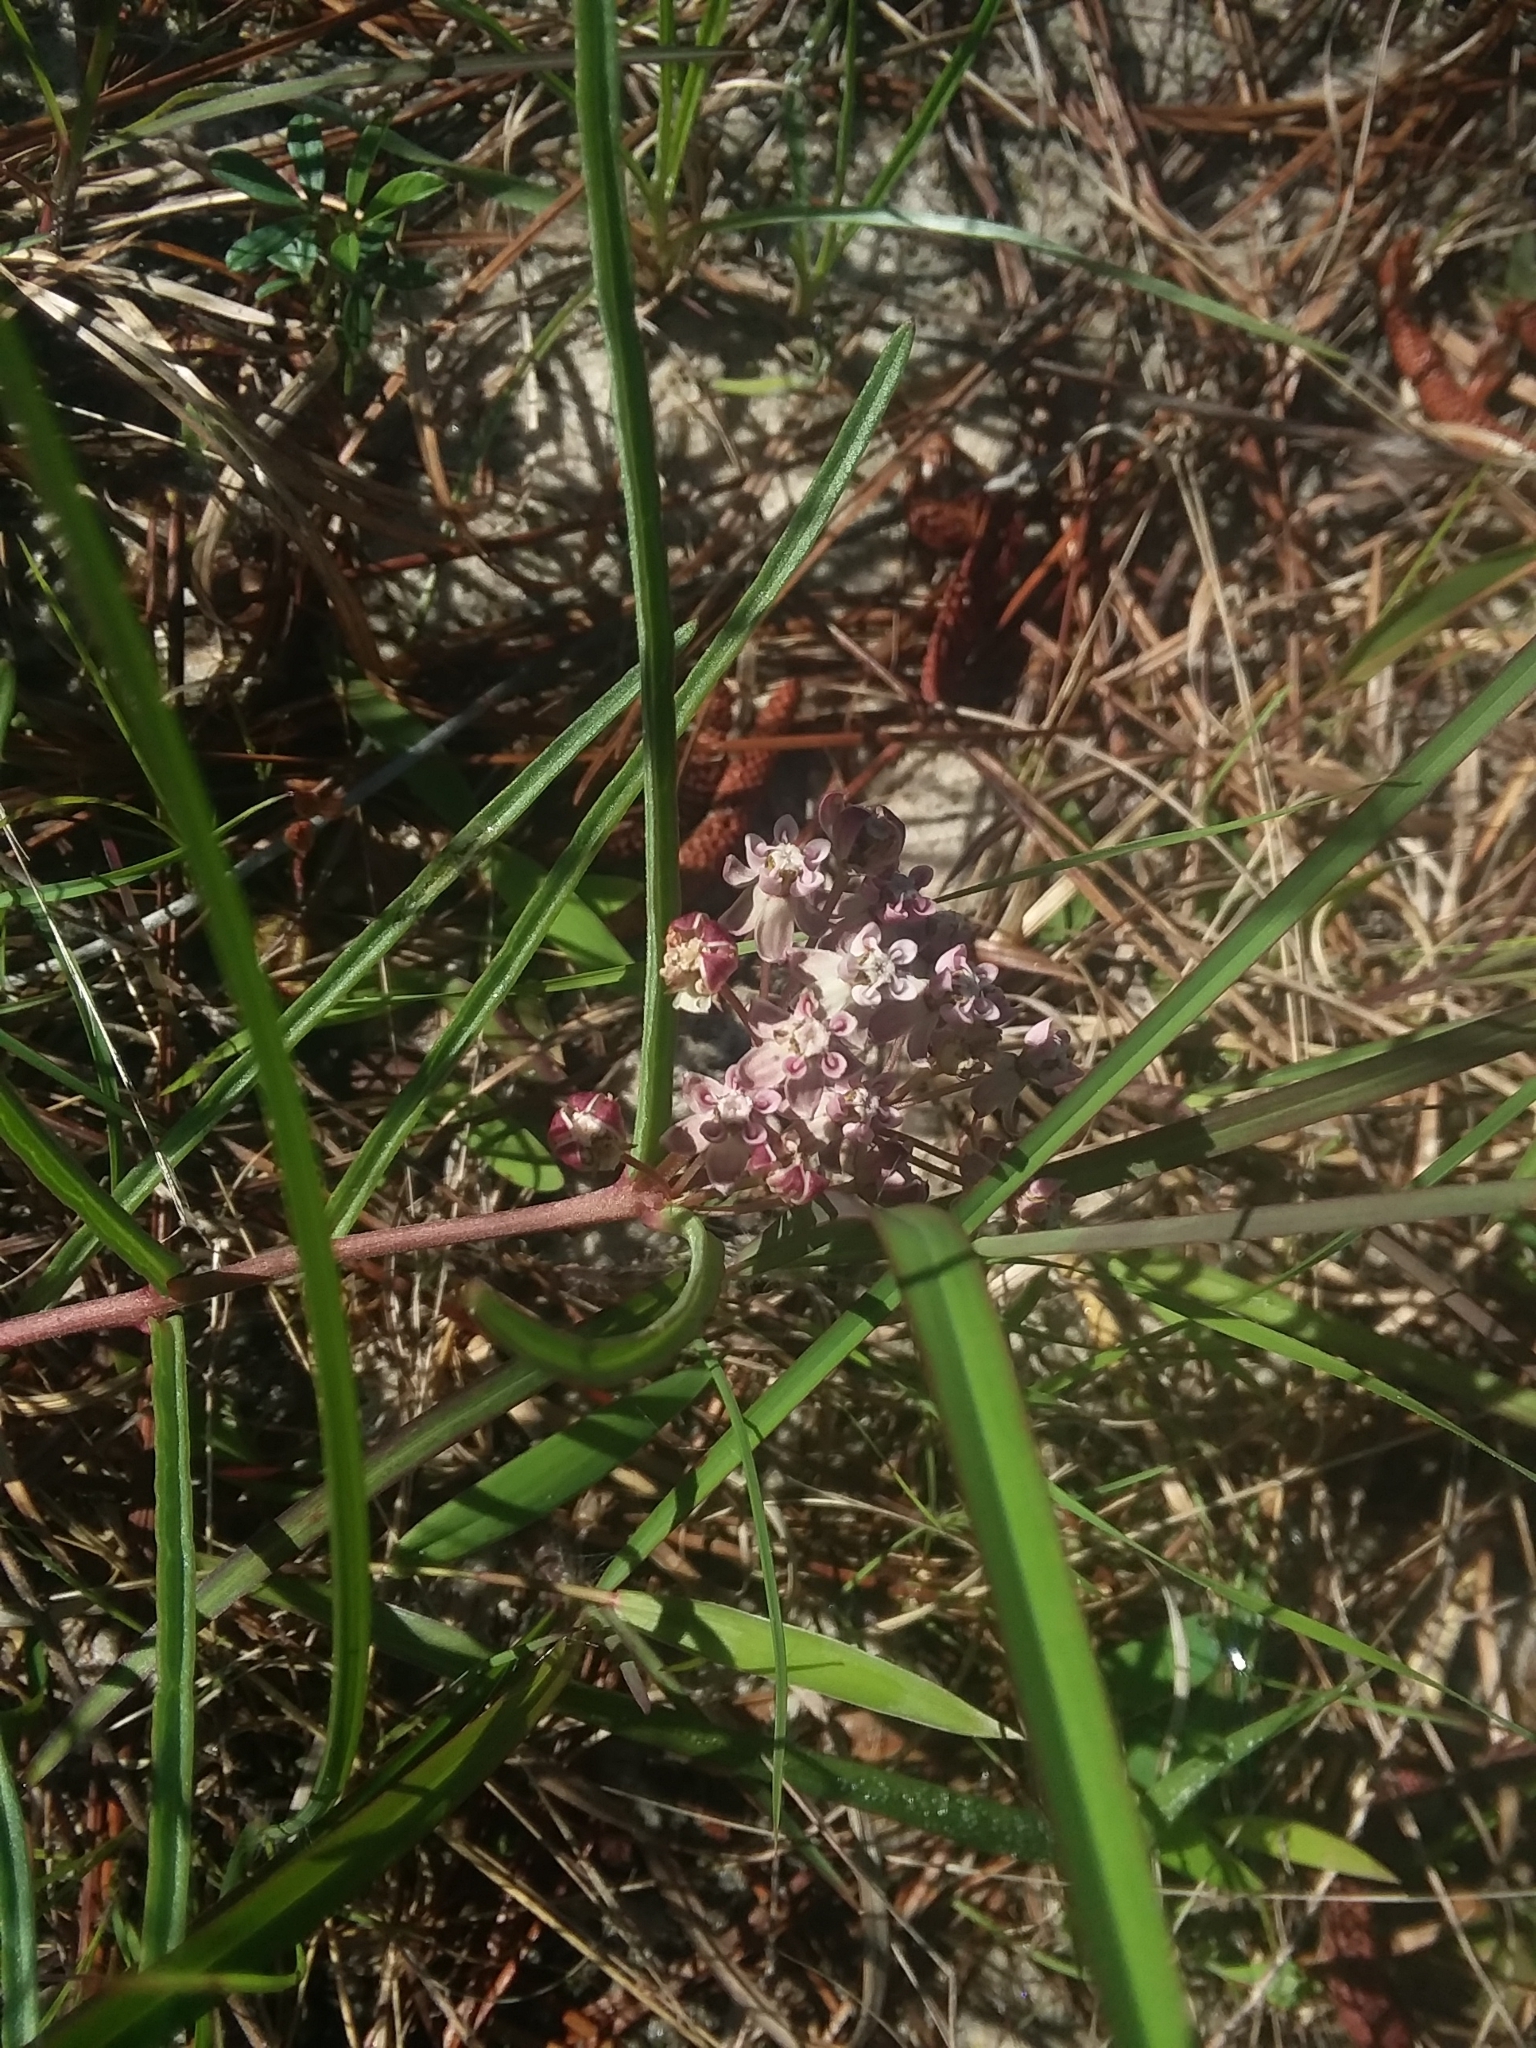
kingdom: Plantae
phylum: Tracheophyta
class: Magnoliopsida
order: Gentianales
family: Apocynaceae
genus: Asclepias
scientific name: Asclepias michauxii
